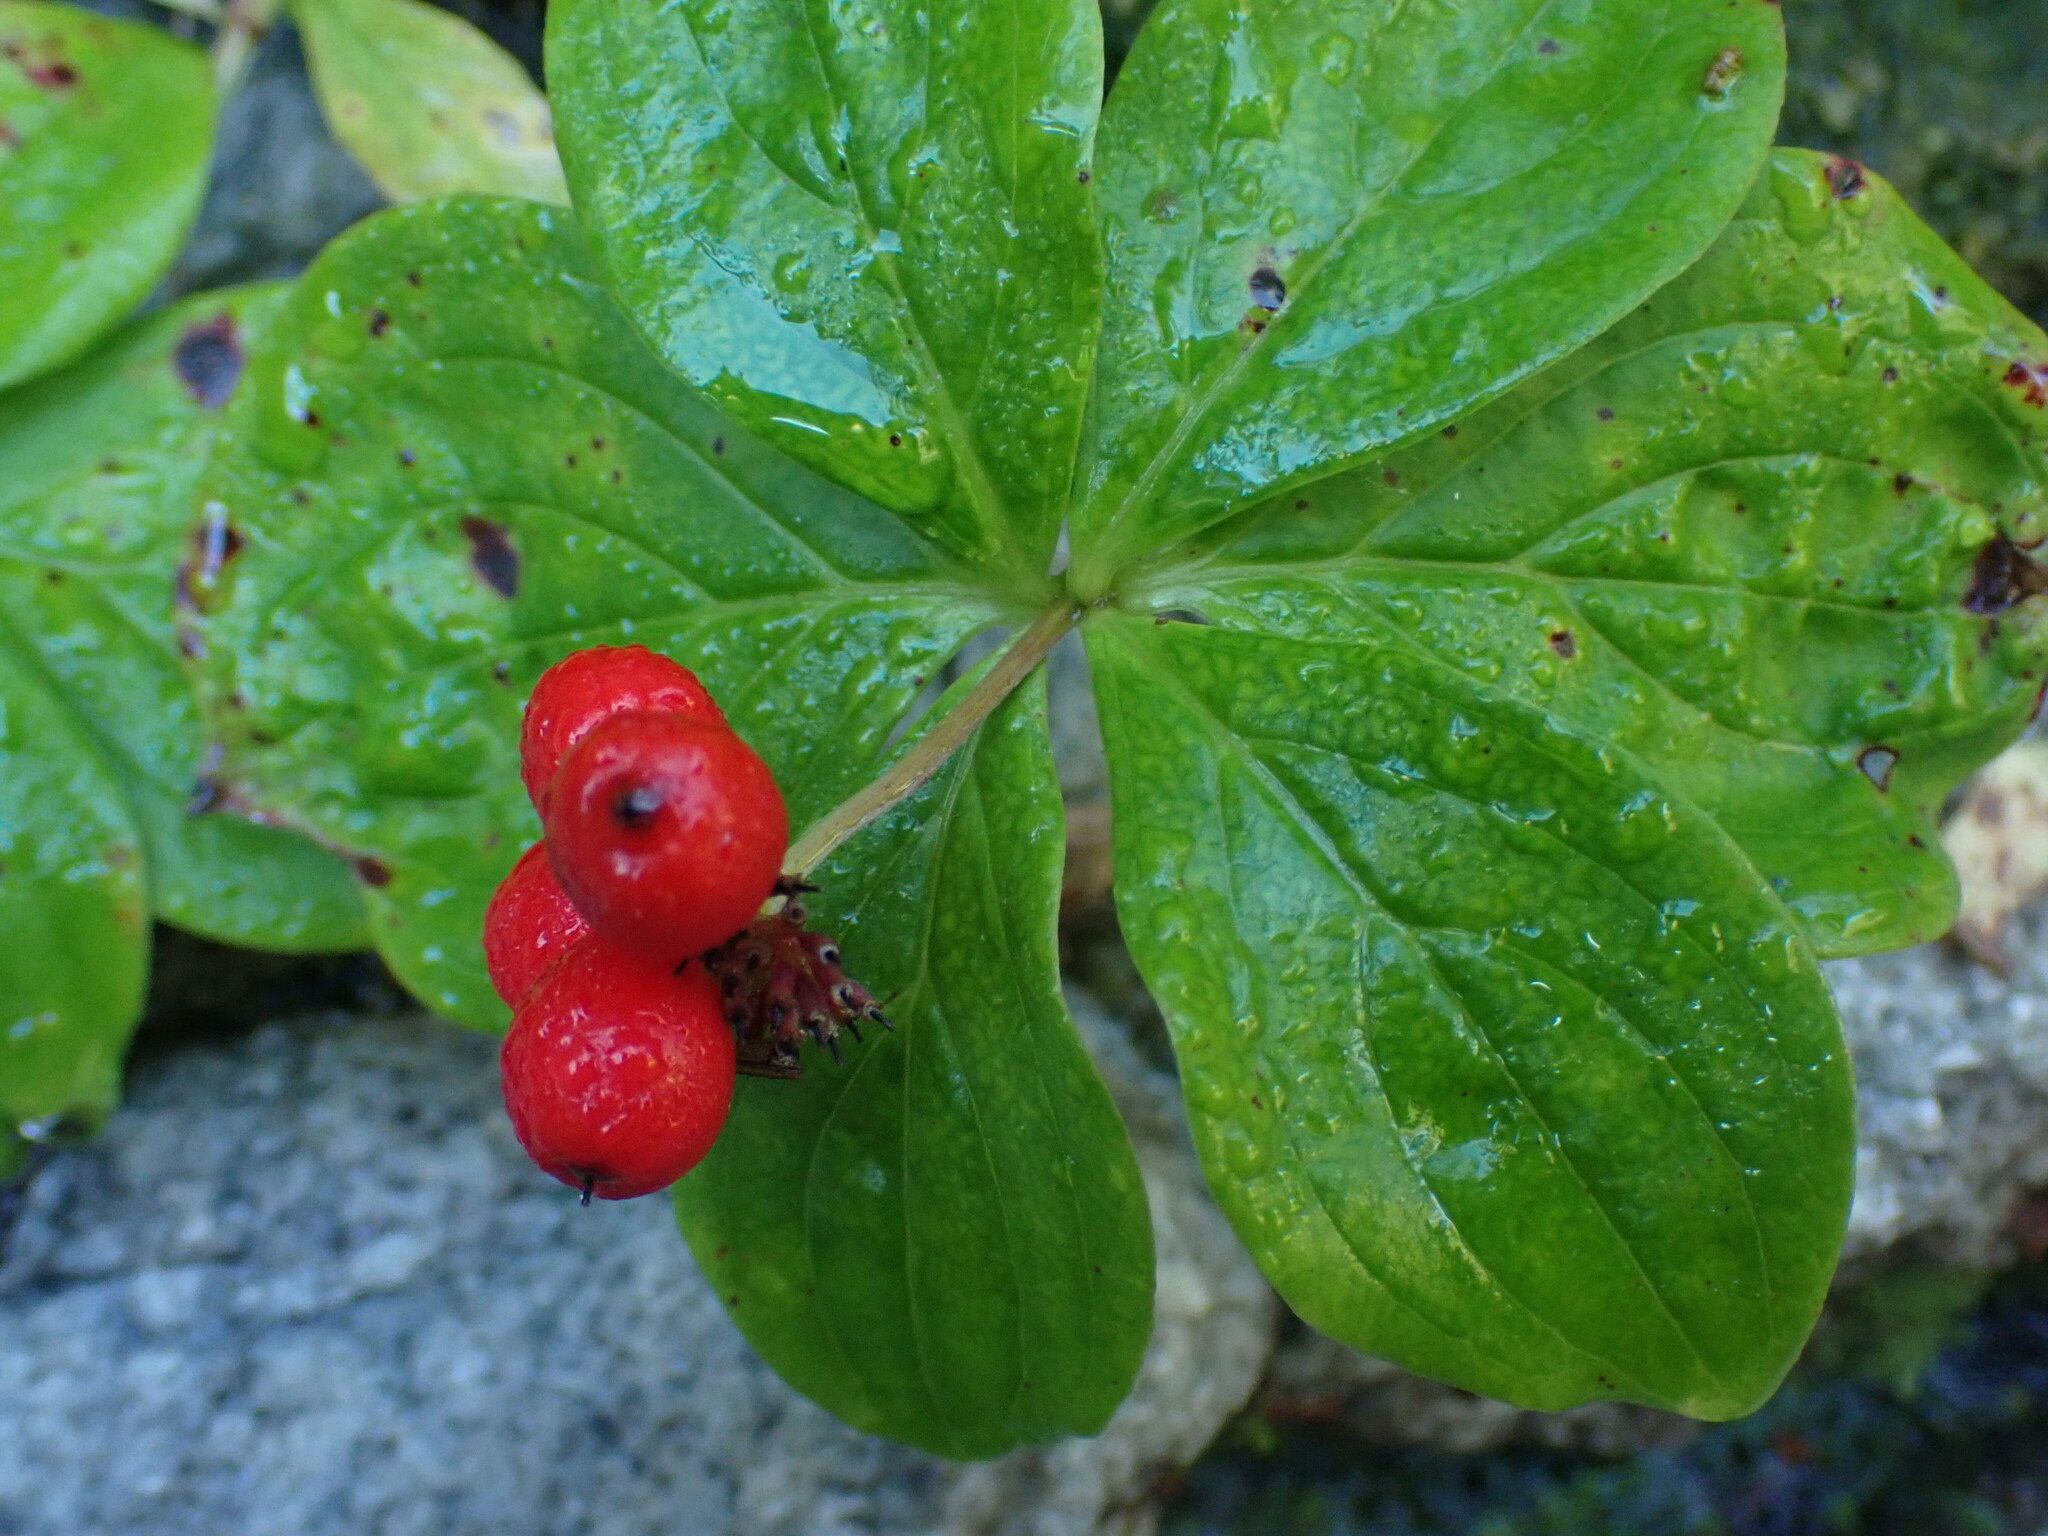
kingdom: Plantae
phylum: Tracheophyta
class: Magnoliopsida
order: Cornales
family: Cornaceae
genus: Cornus
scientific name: Cornus unalaschkensis
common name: Alaska bunchberry
